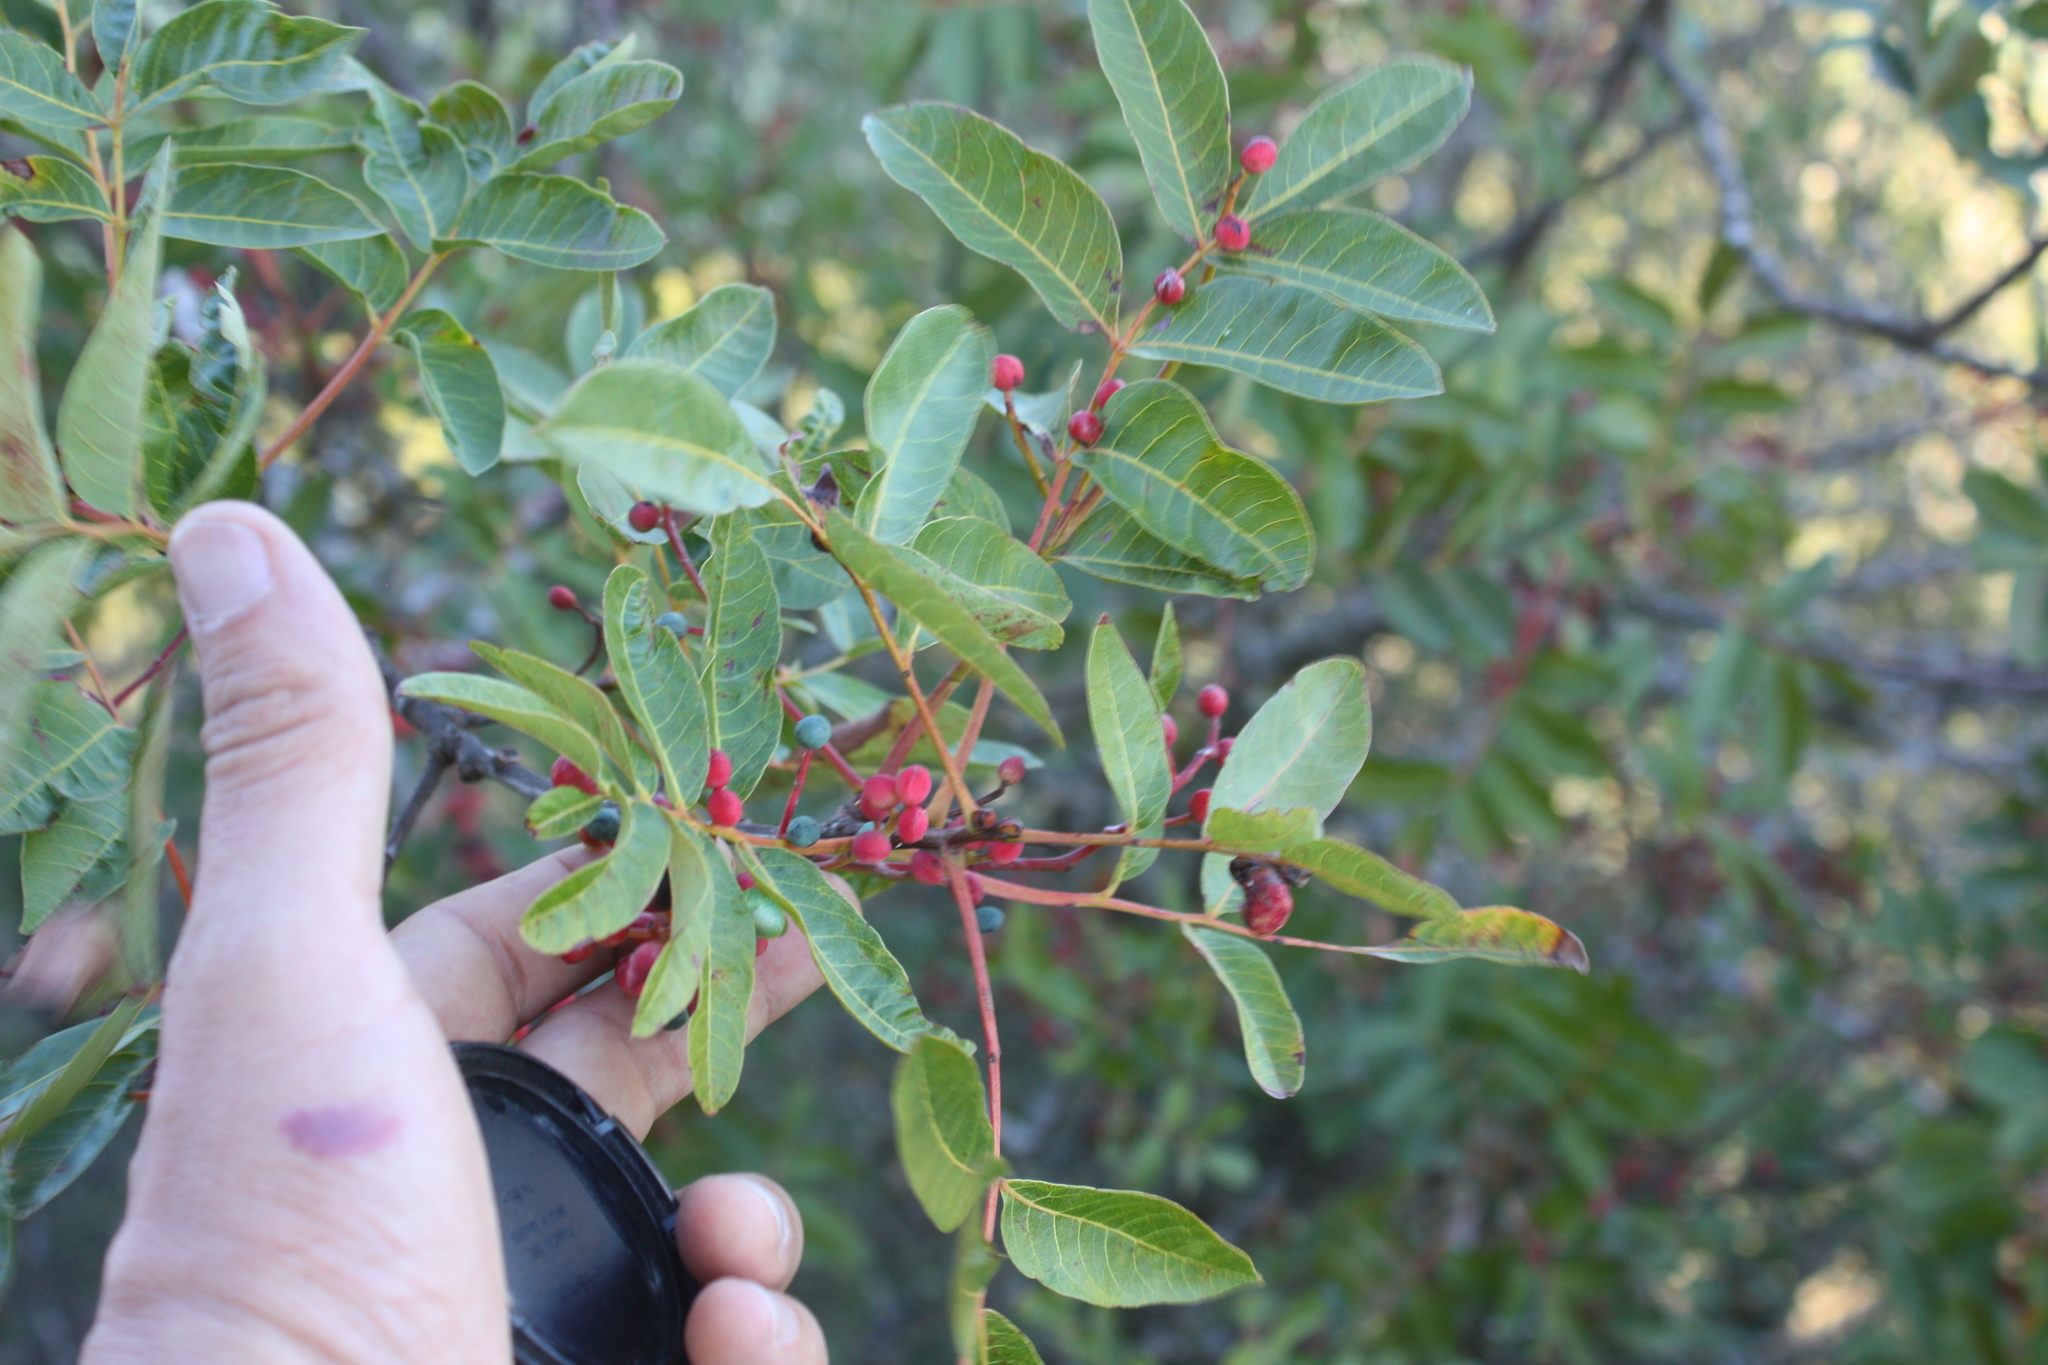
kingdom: Plantae
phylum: Tracheophyta
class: Magnoliopsida
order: Sapindales
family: Anacardiaceae
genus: Pistacia
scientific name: Pistacia terebinthus
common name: Terebinth
